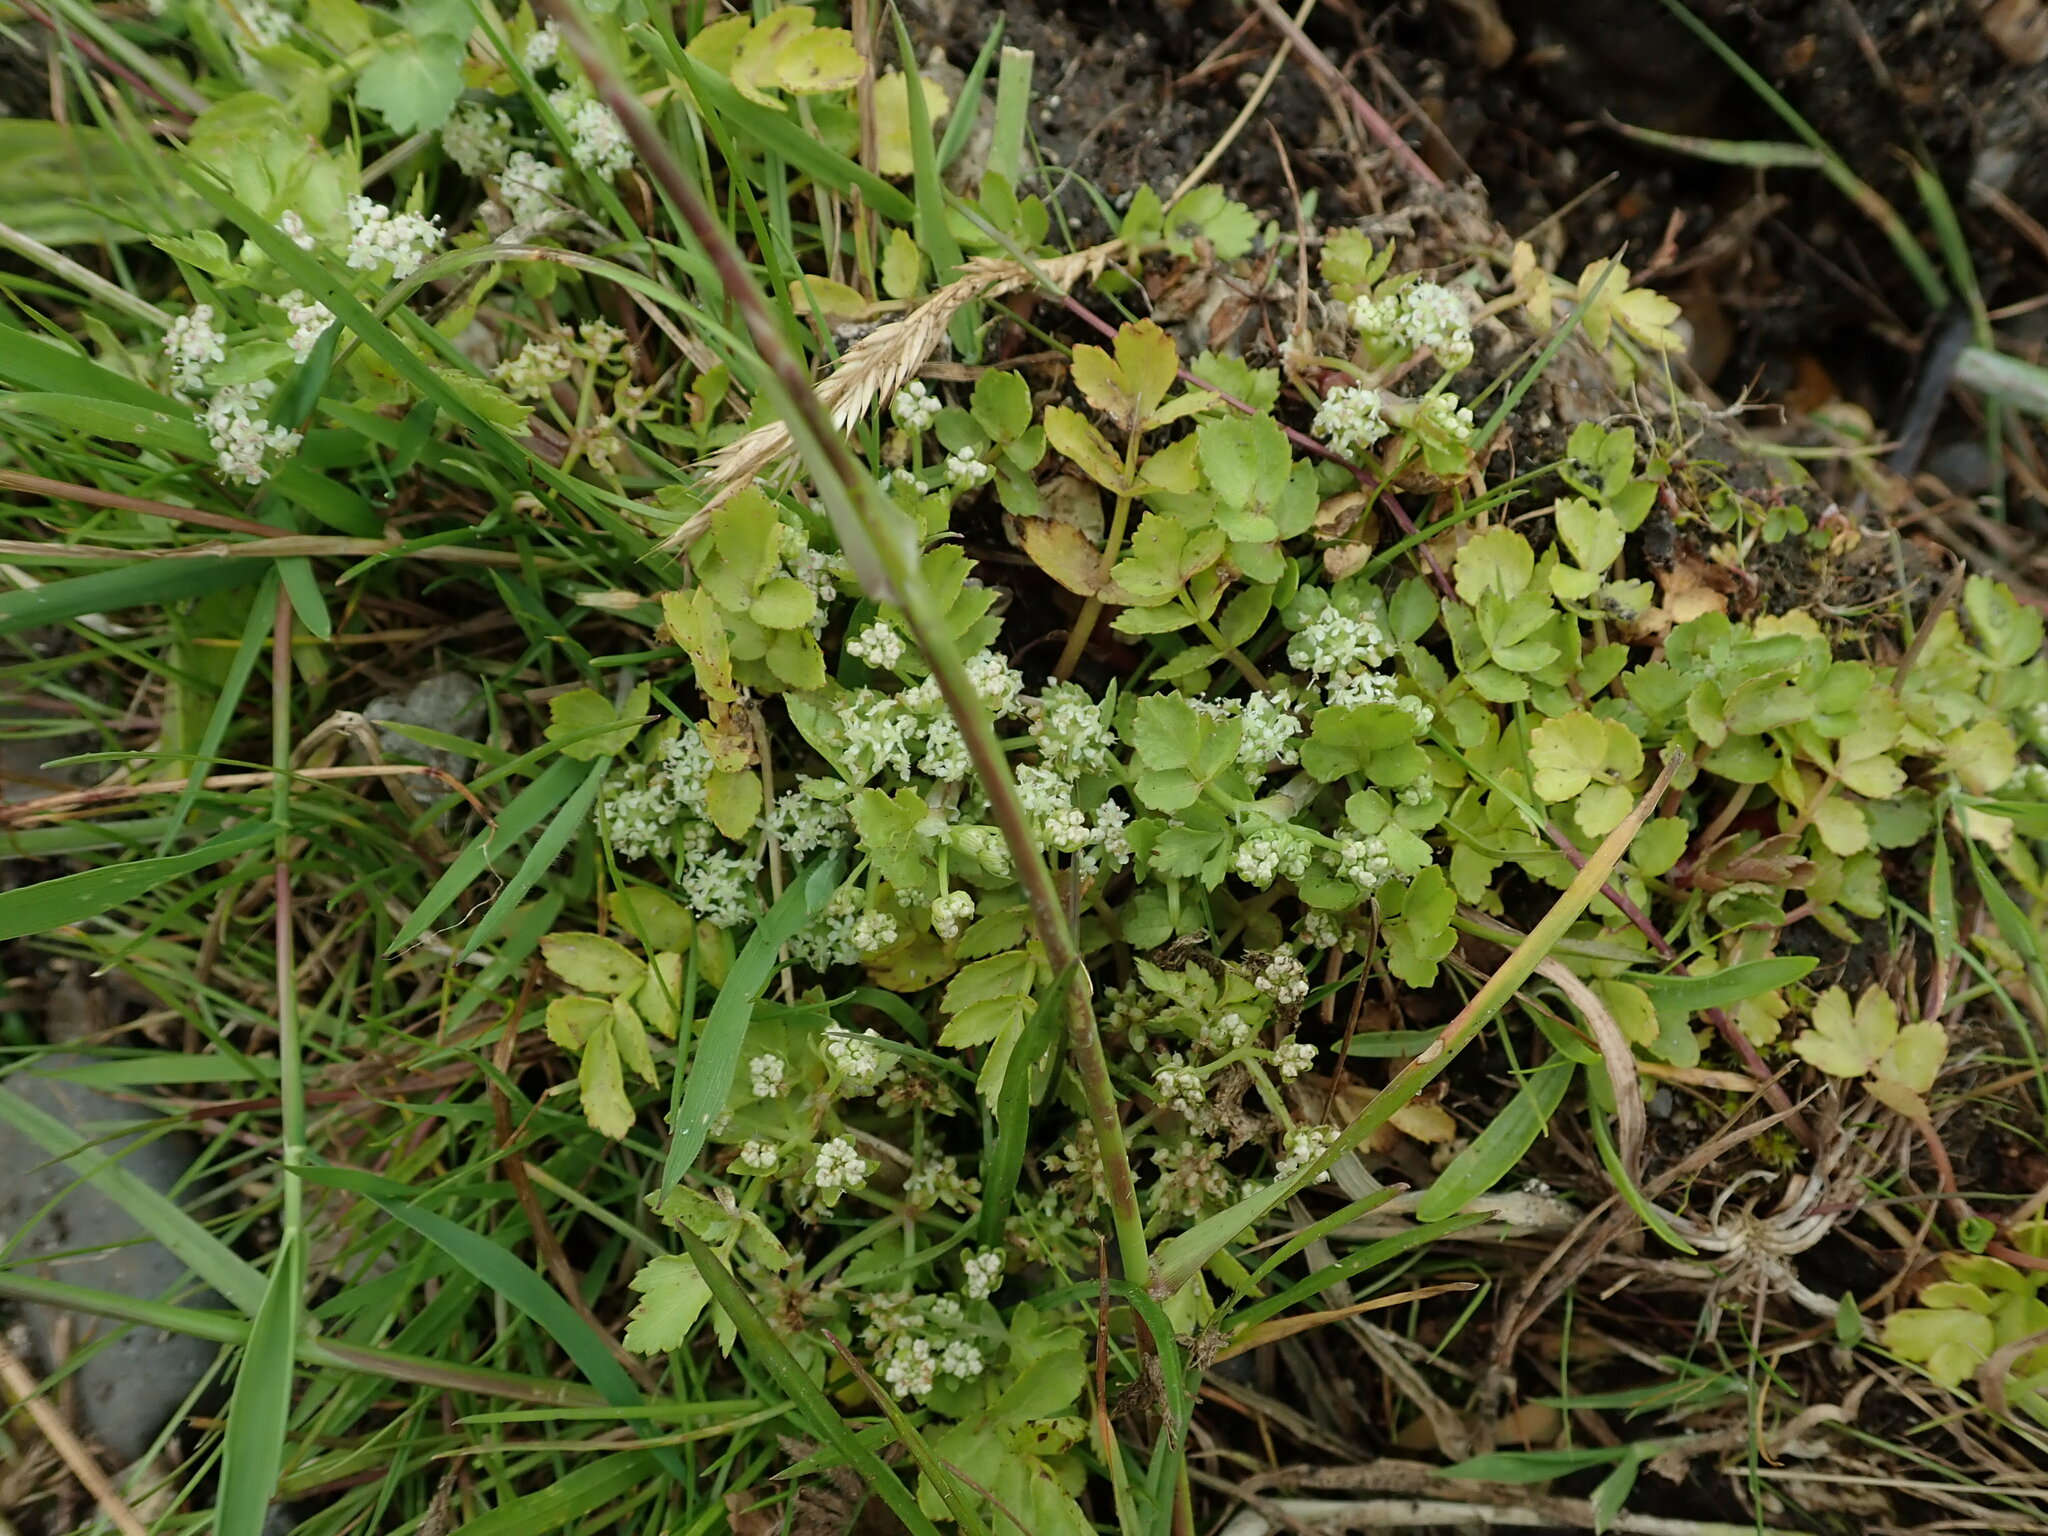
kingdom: Plantae
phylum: Tracheophyta
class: Magnoliopsida
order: Apiales
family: Apiaceae
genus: Helosciadium
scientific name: Helosciadium nodiflorum
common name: Fool's-watercress
